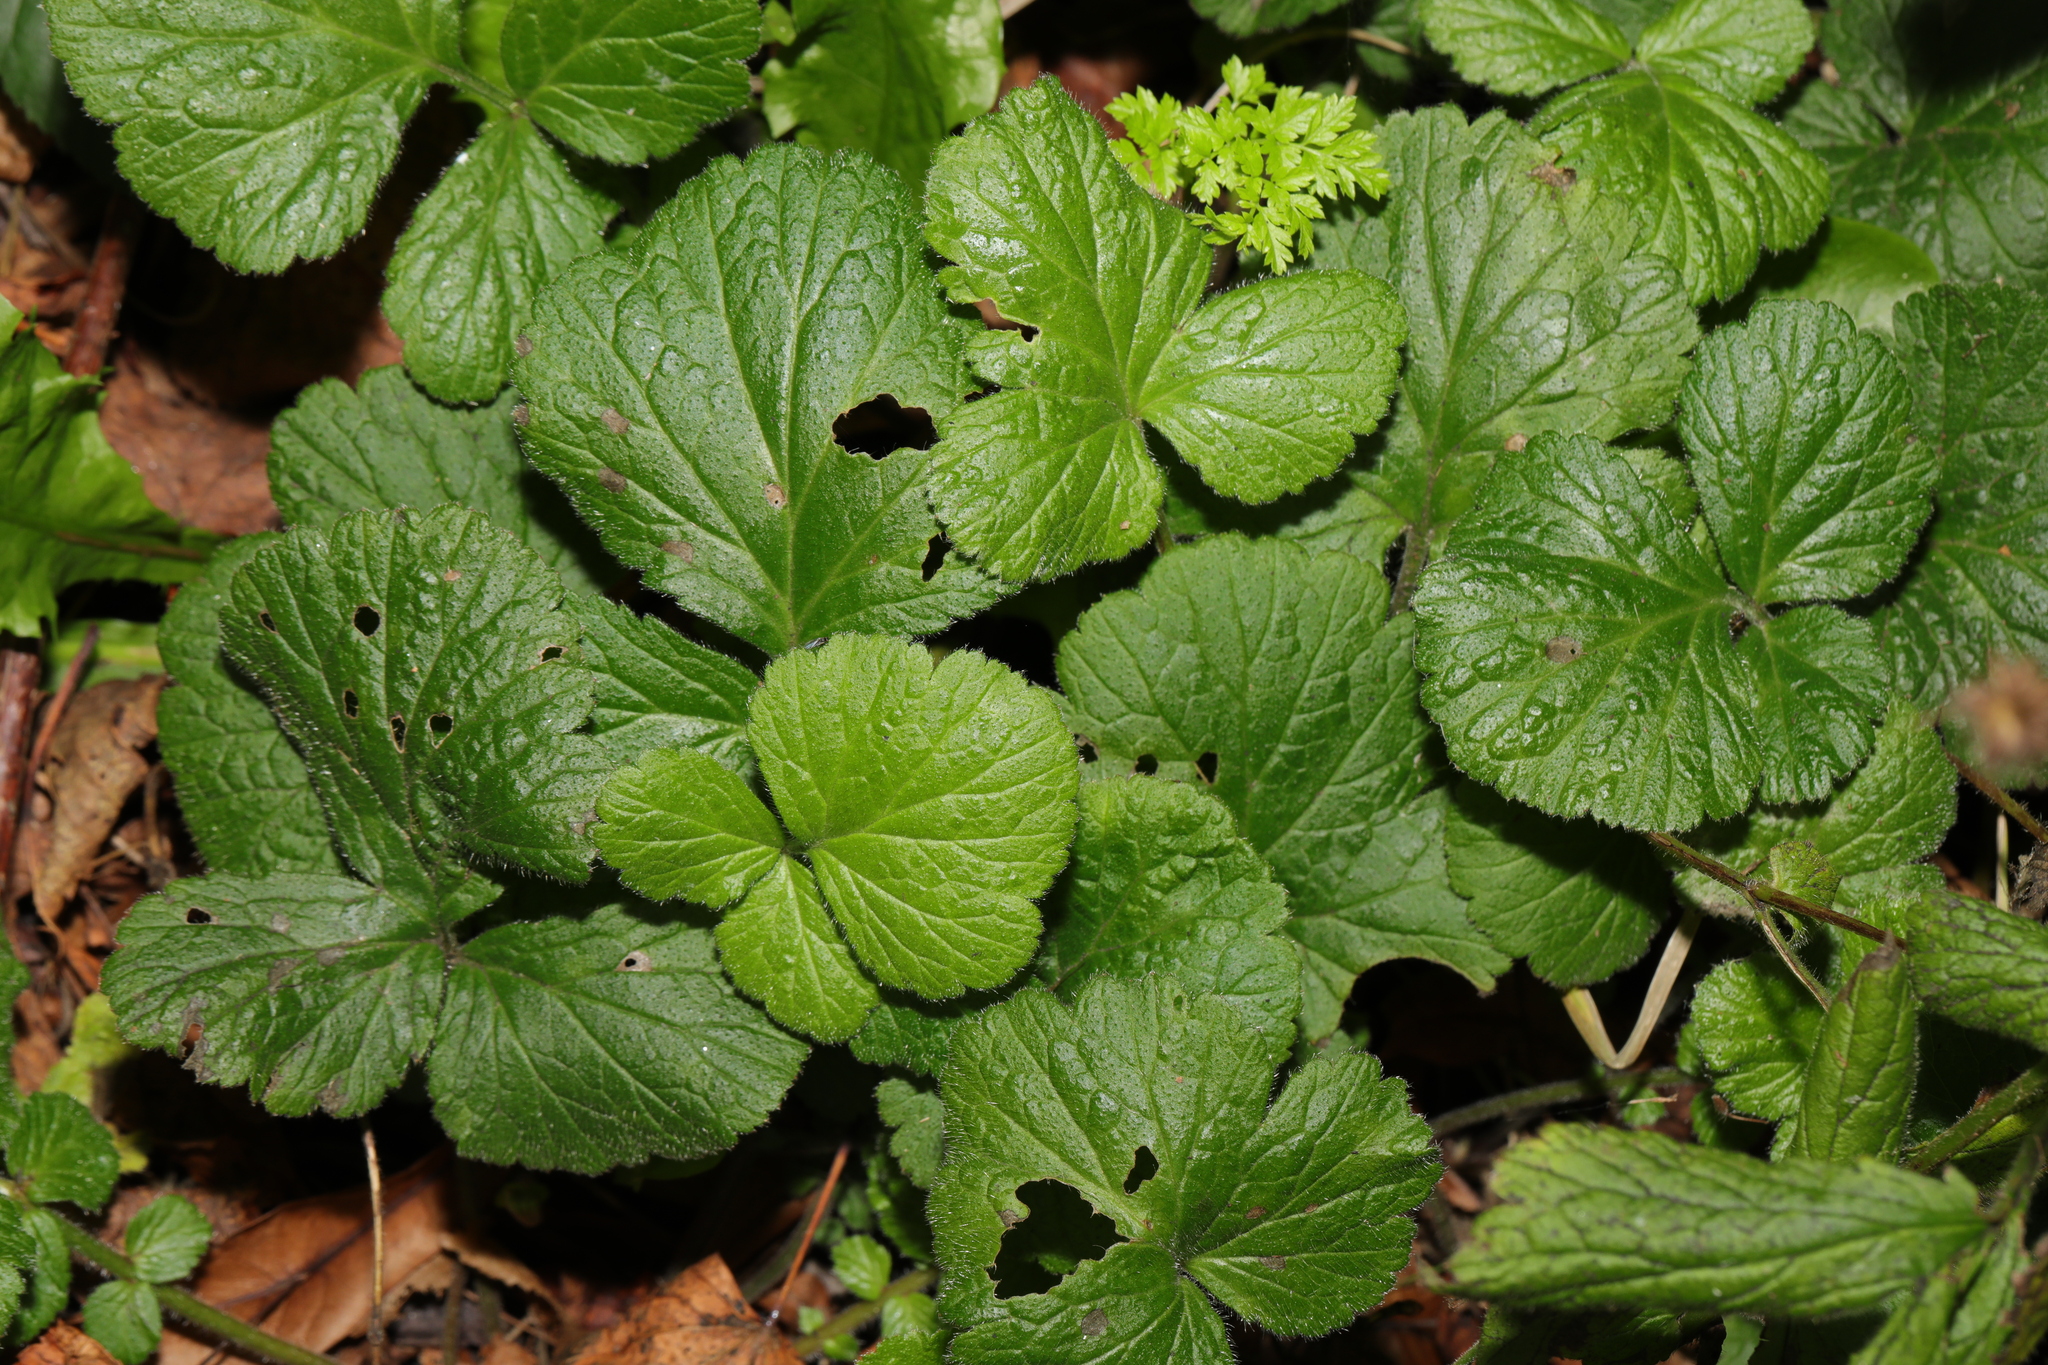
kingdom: Plantae
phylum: Tracheophyta
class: Magnoliopsida
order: Rosales
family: Rosaceae
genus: Geum
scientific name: Geum urbanum
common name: Wood avens
